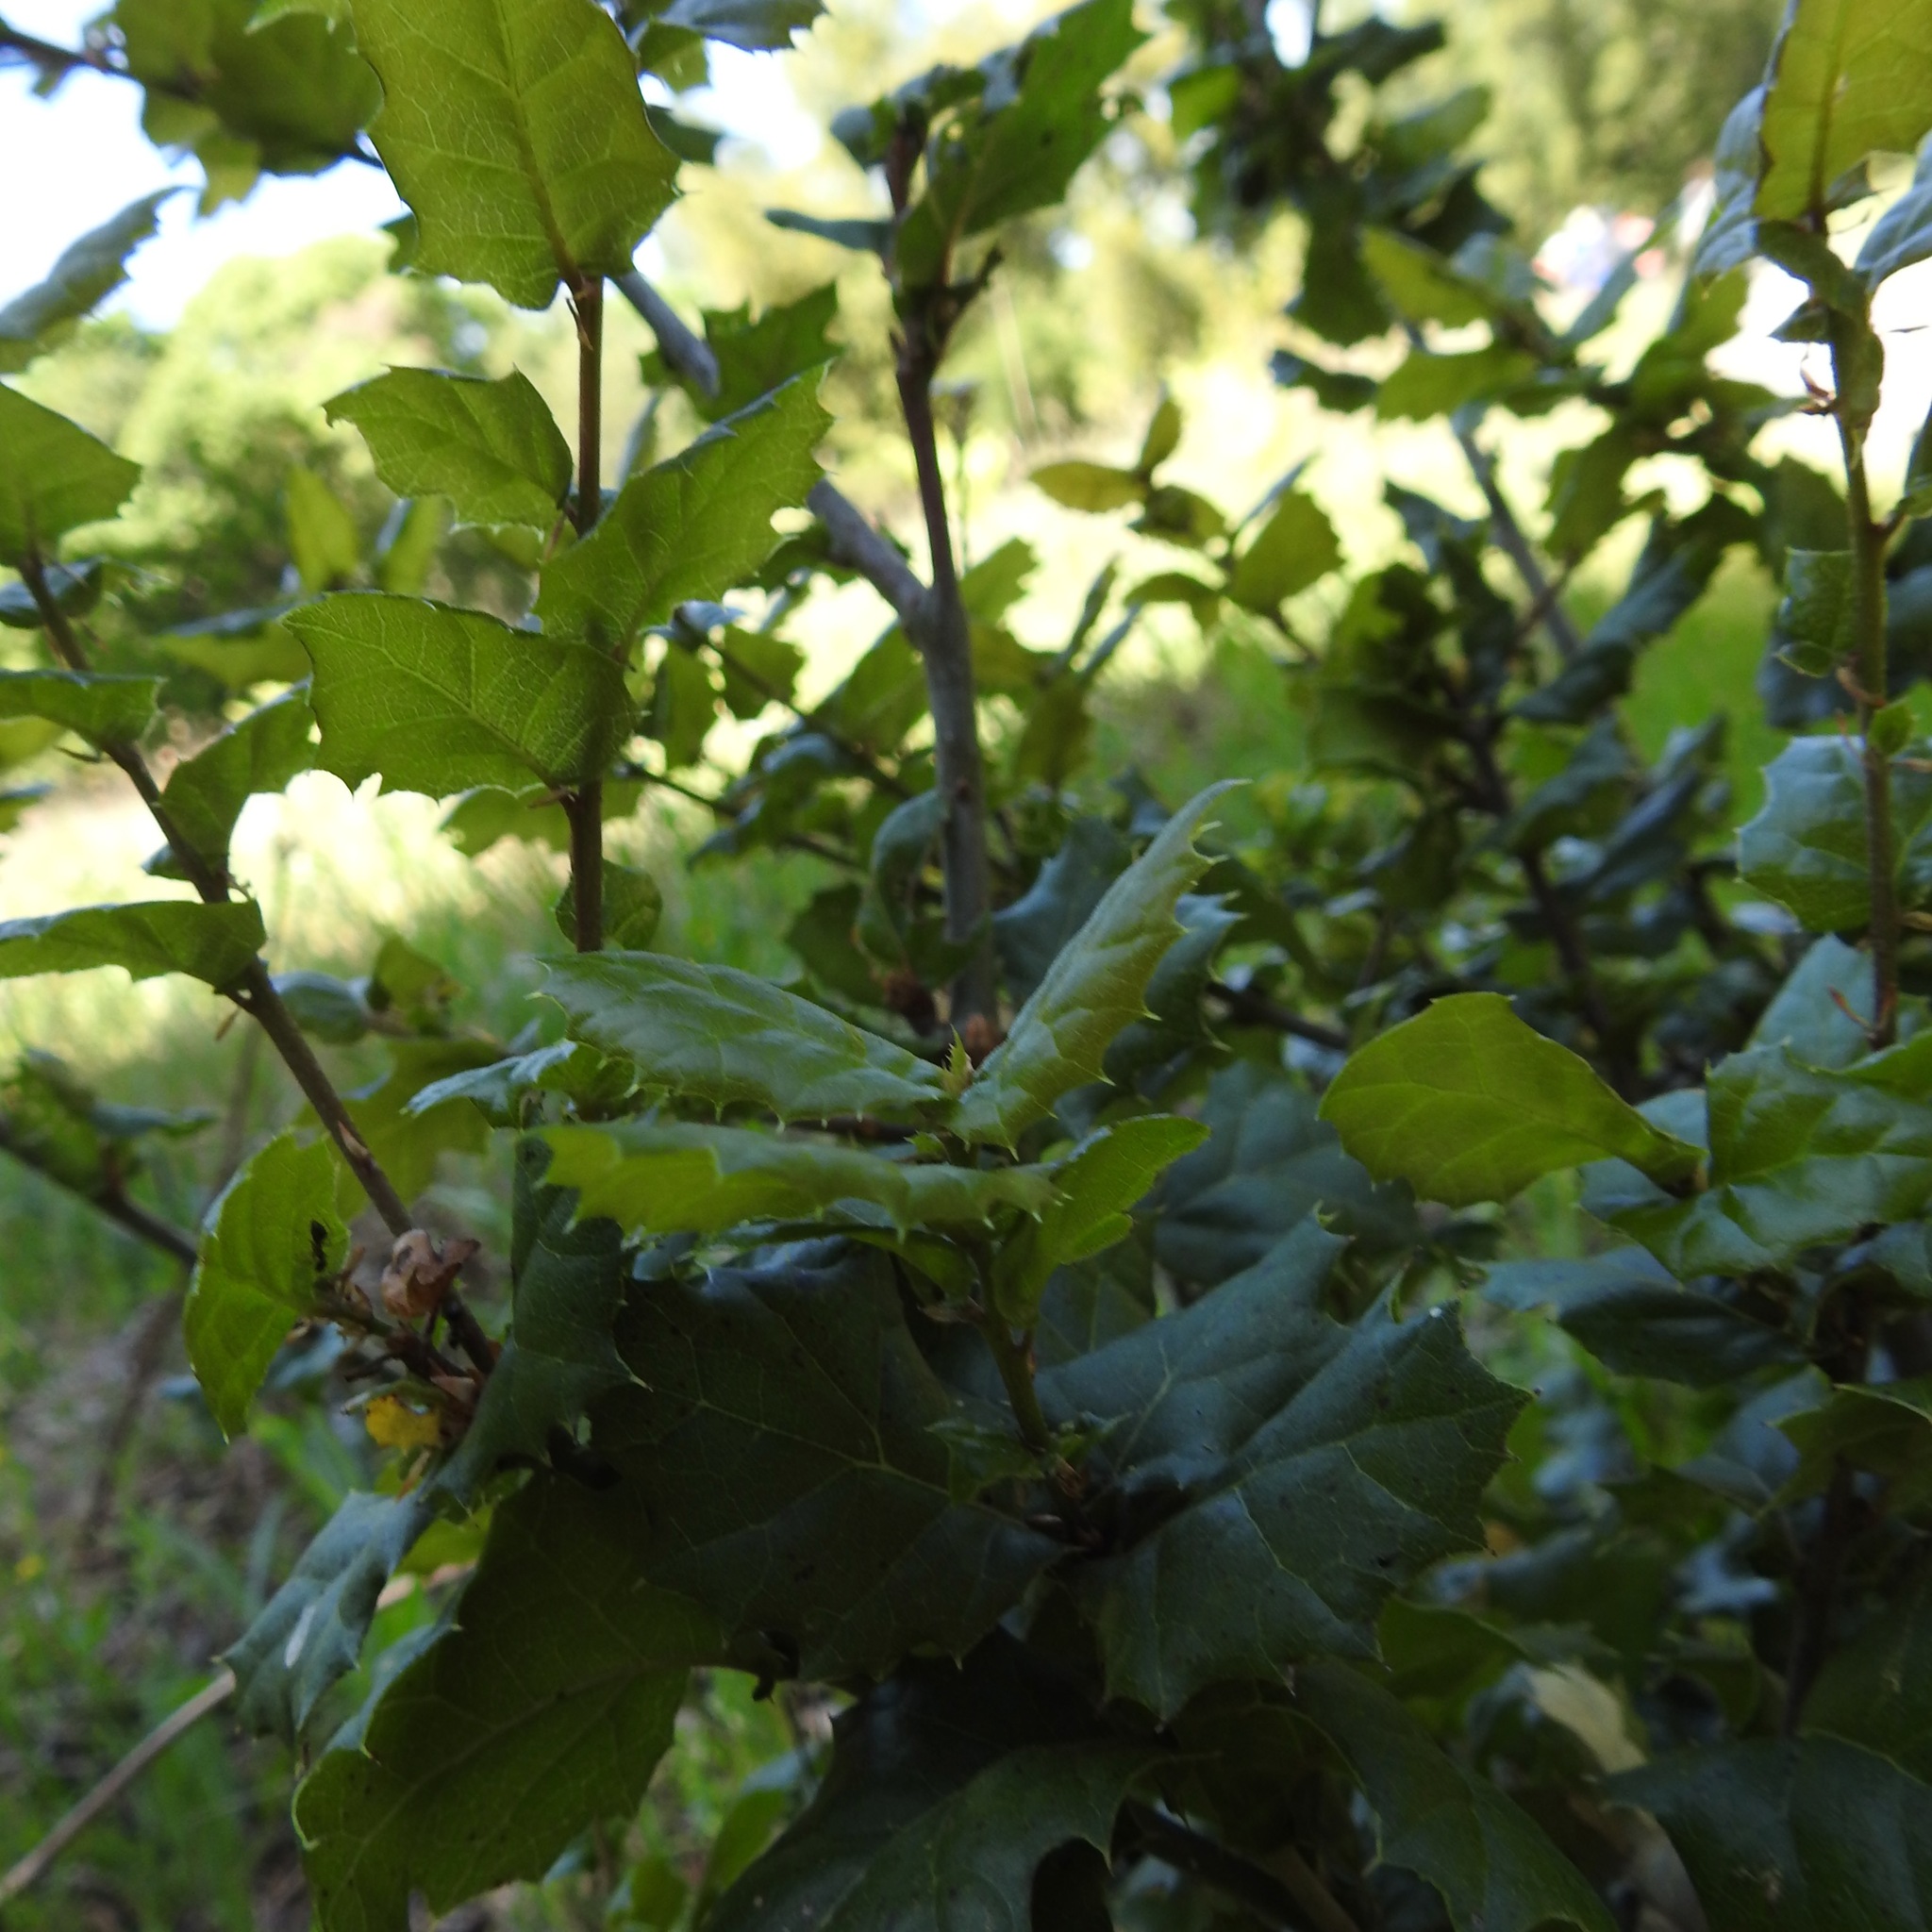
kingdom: Plantae
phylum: Tracheophyta
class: Magnoliopsida
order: Fagales
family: Fagaceae
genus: Quercus
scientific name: Quercus agrifolia
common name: California live oak
